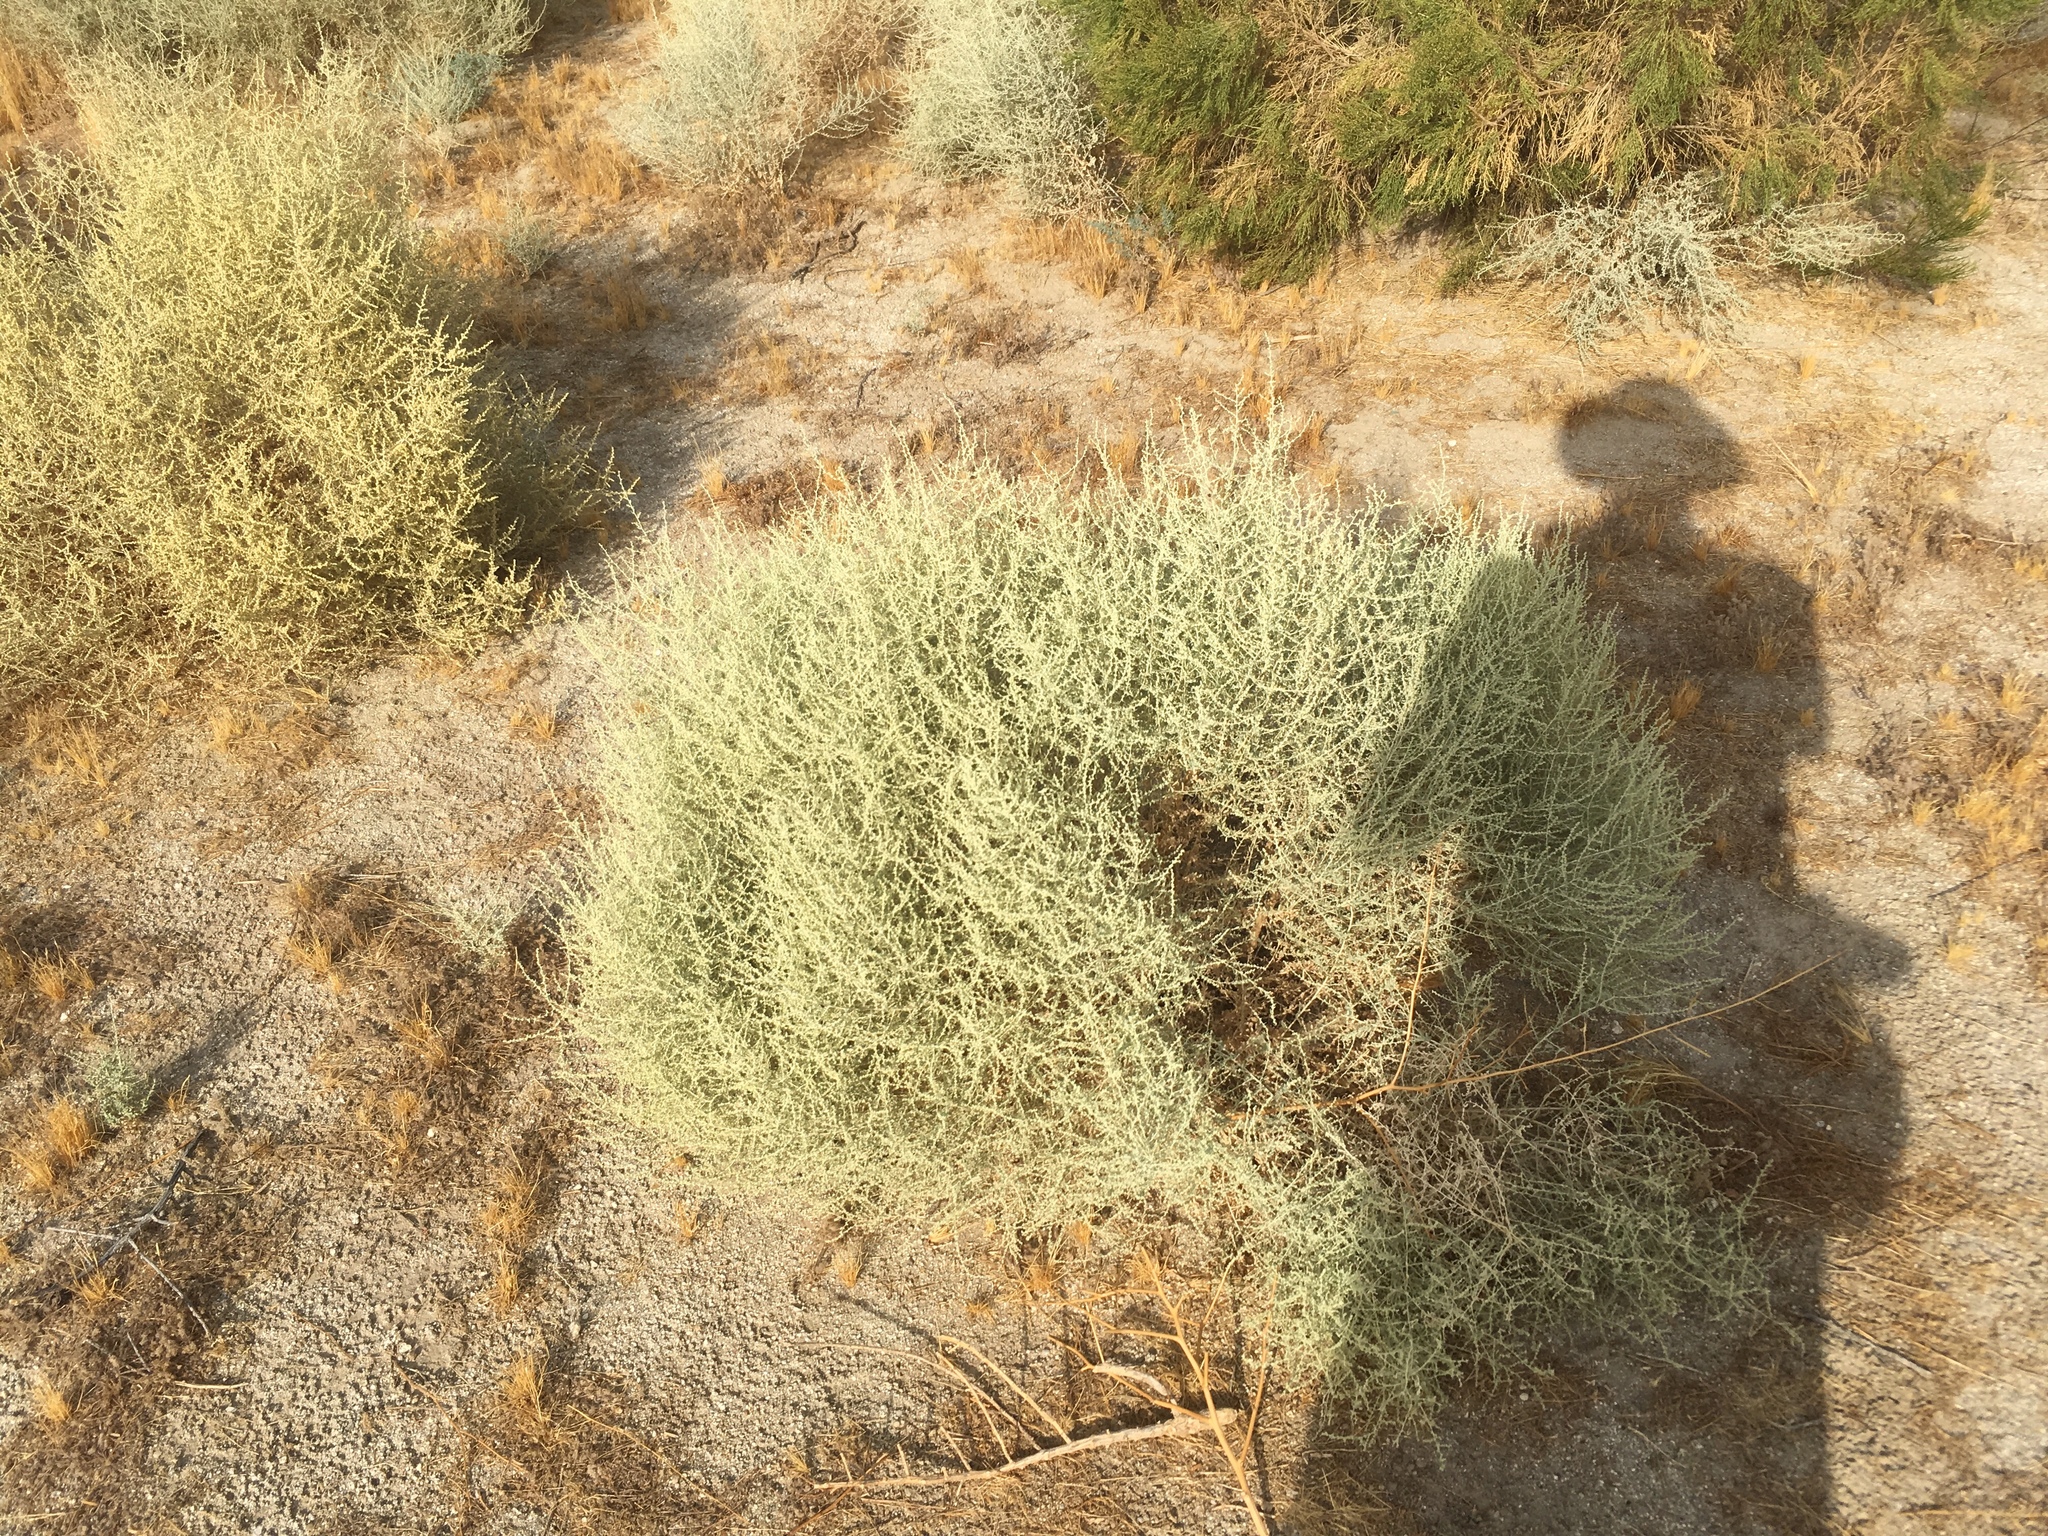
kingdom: Plantae
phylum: Tracheophyta
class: Magnoliopsida
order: Caryophyllales
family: Amaranthaceae
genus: Atriplex
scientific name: Atriplex polycarpa
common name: Desert saltbush
